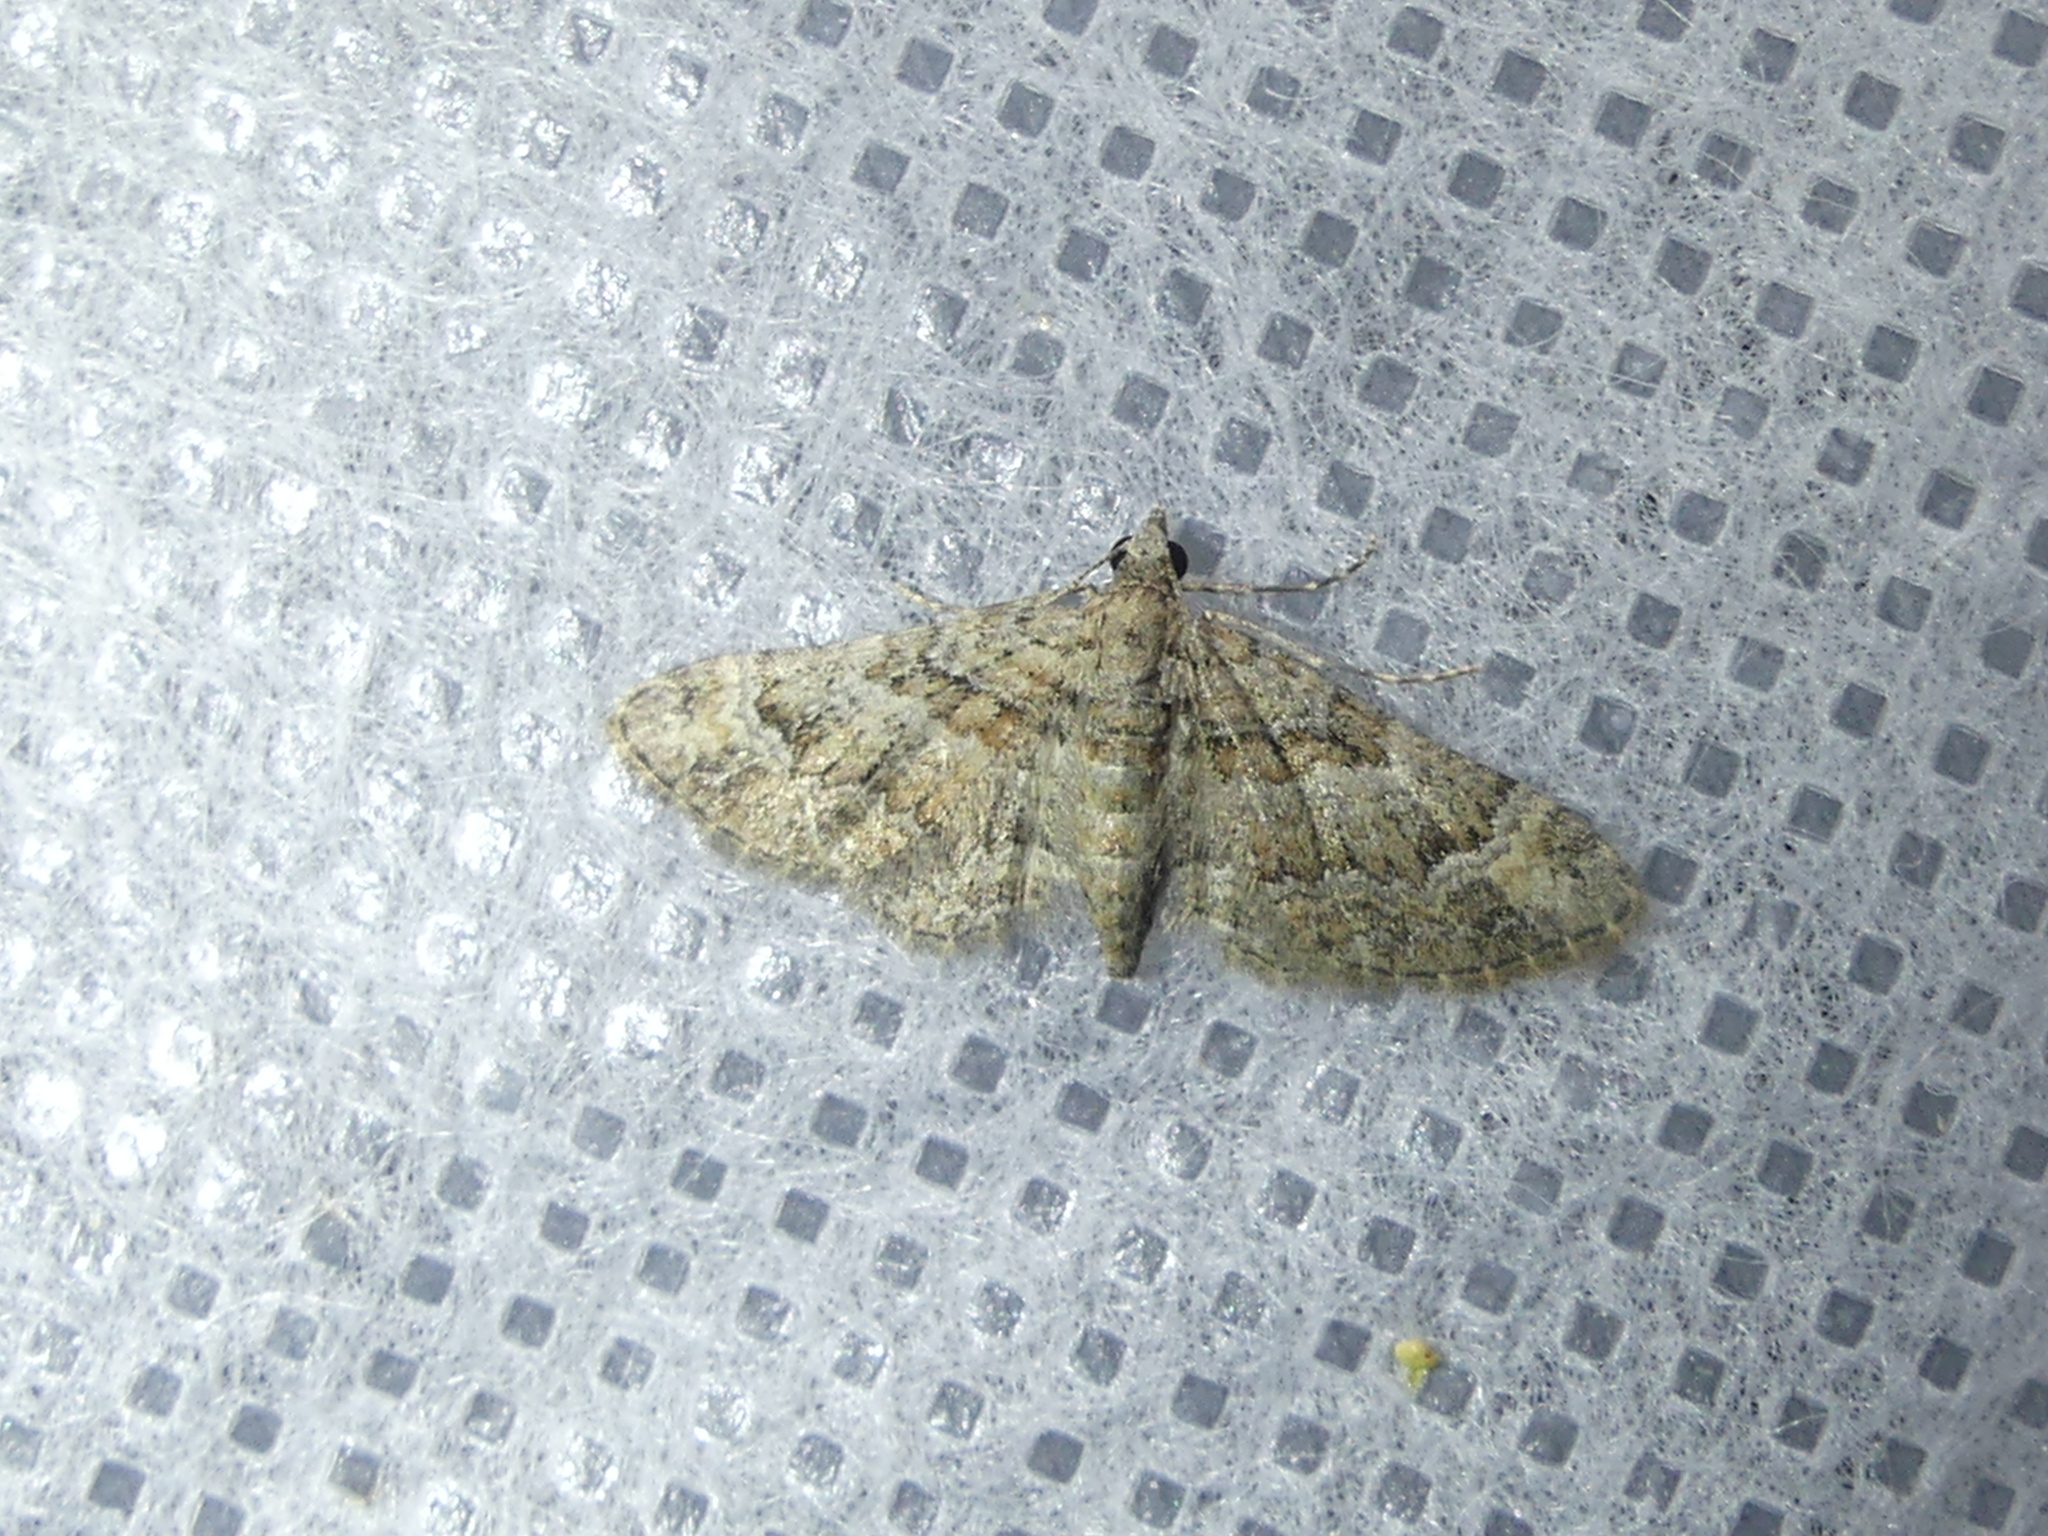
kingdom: Animalia
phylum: Arthropoda
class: Insecta
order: Lepidoptera
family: Geometridae
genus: Gymnoscelis
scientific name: Gymnoscelis rufifasciata
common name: Double-striped pug
